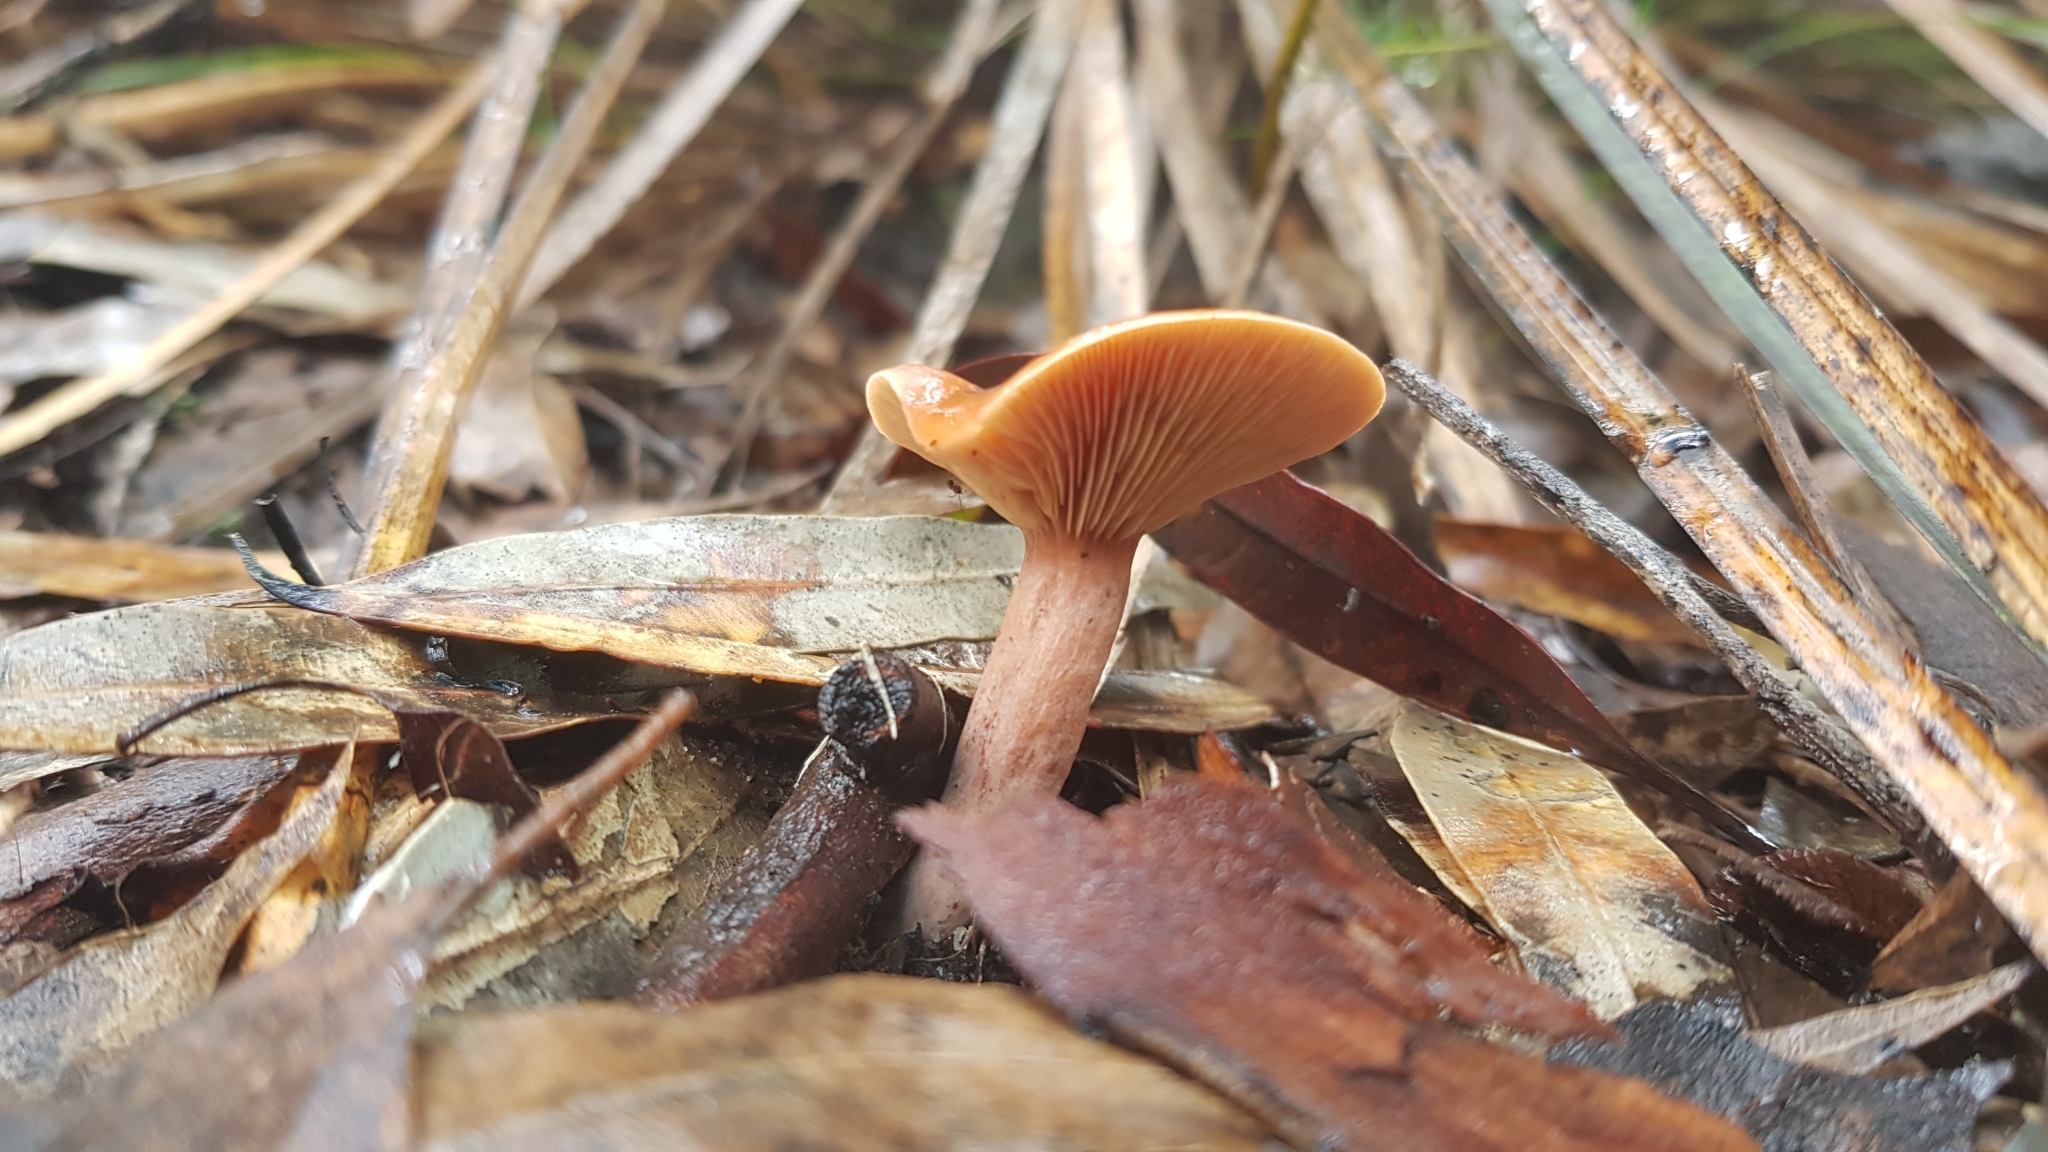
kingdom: Fungi
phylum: Basidiomycota
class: Agaricomycetes
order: Russulales
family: Russulaceae
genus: Lactarius
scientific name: Lactarius eucalypti
